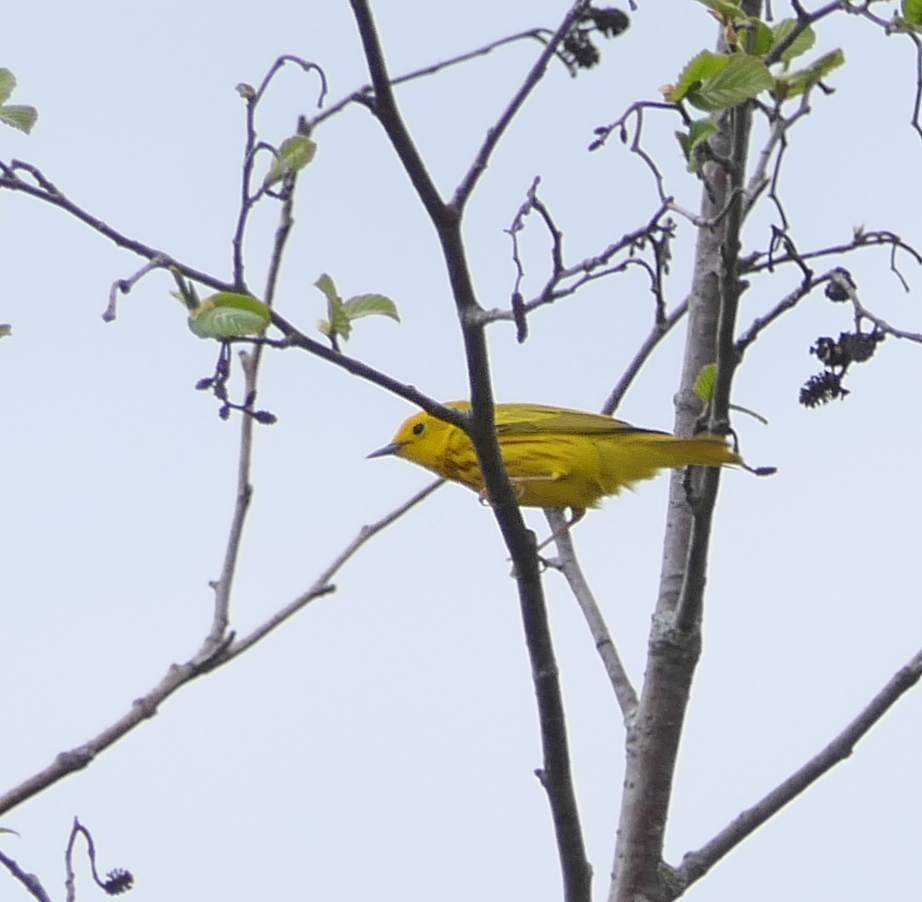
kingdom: Animalia
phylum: Chordata
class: Aves
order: Passeriformes
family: Parulidae
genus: Setophaga
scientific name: Setophaga petechia
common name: Yellow warbler
